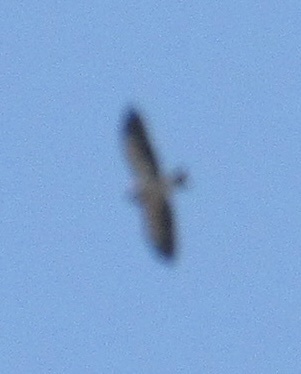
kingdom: Animalia
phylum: Chordata
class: Aves
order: Accipitriformes
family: Accipitridae
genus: Buteo
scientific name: Buteo swainsoni
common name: Swainson's hawk
